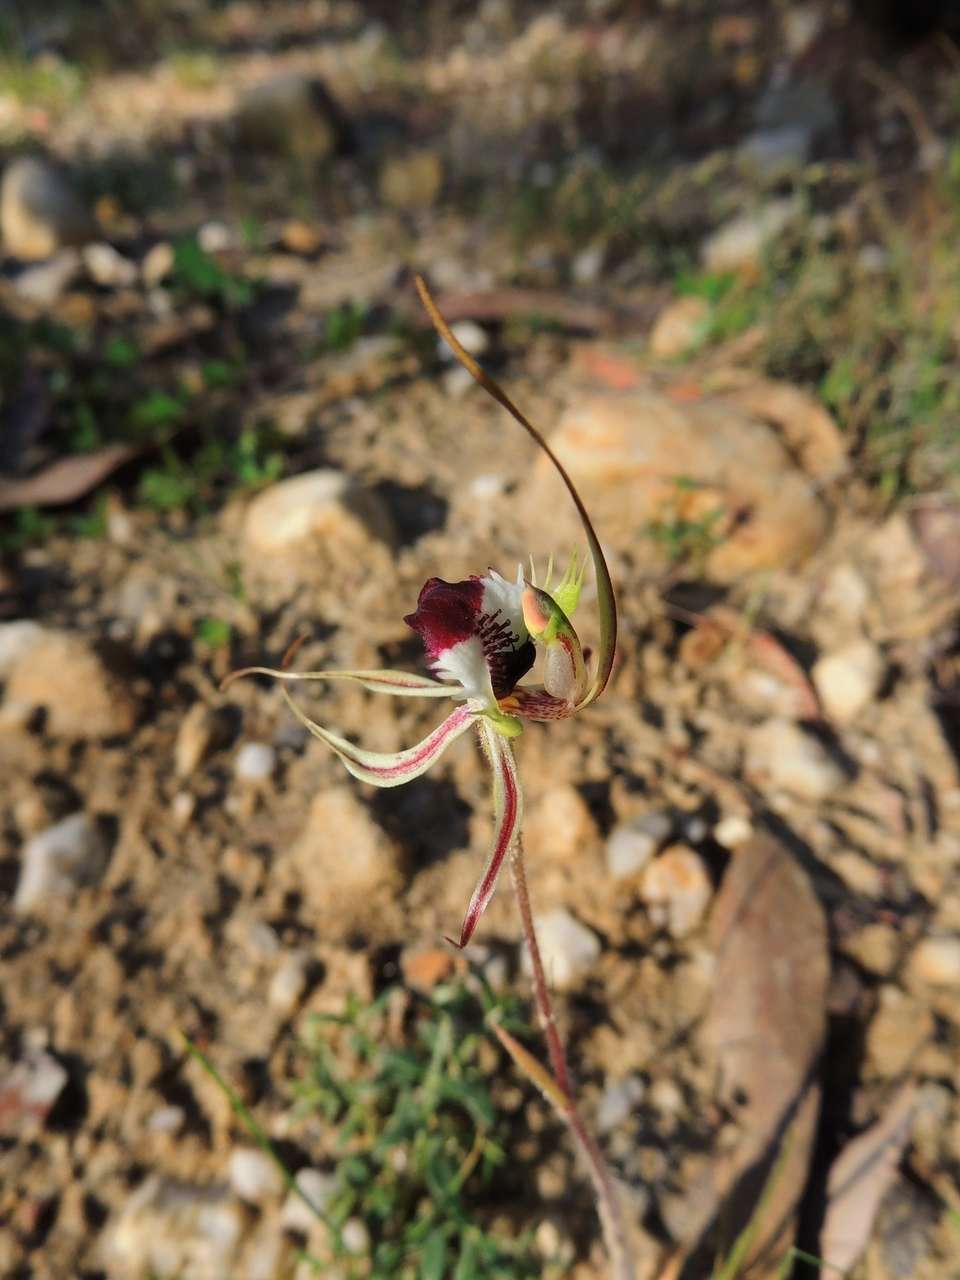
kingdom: Plantae
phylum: Tracheophyta
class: Liliopsida
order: Asparagales
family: Orchidaceae
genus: Caladenia
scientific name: Caladenia tentaculata
